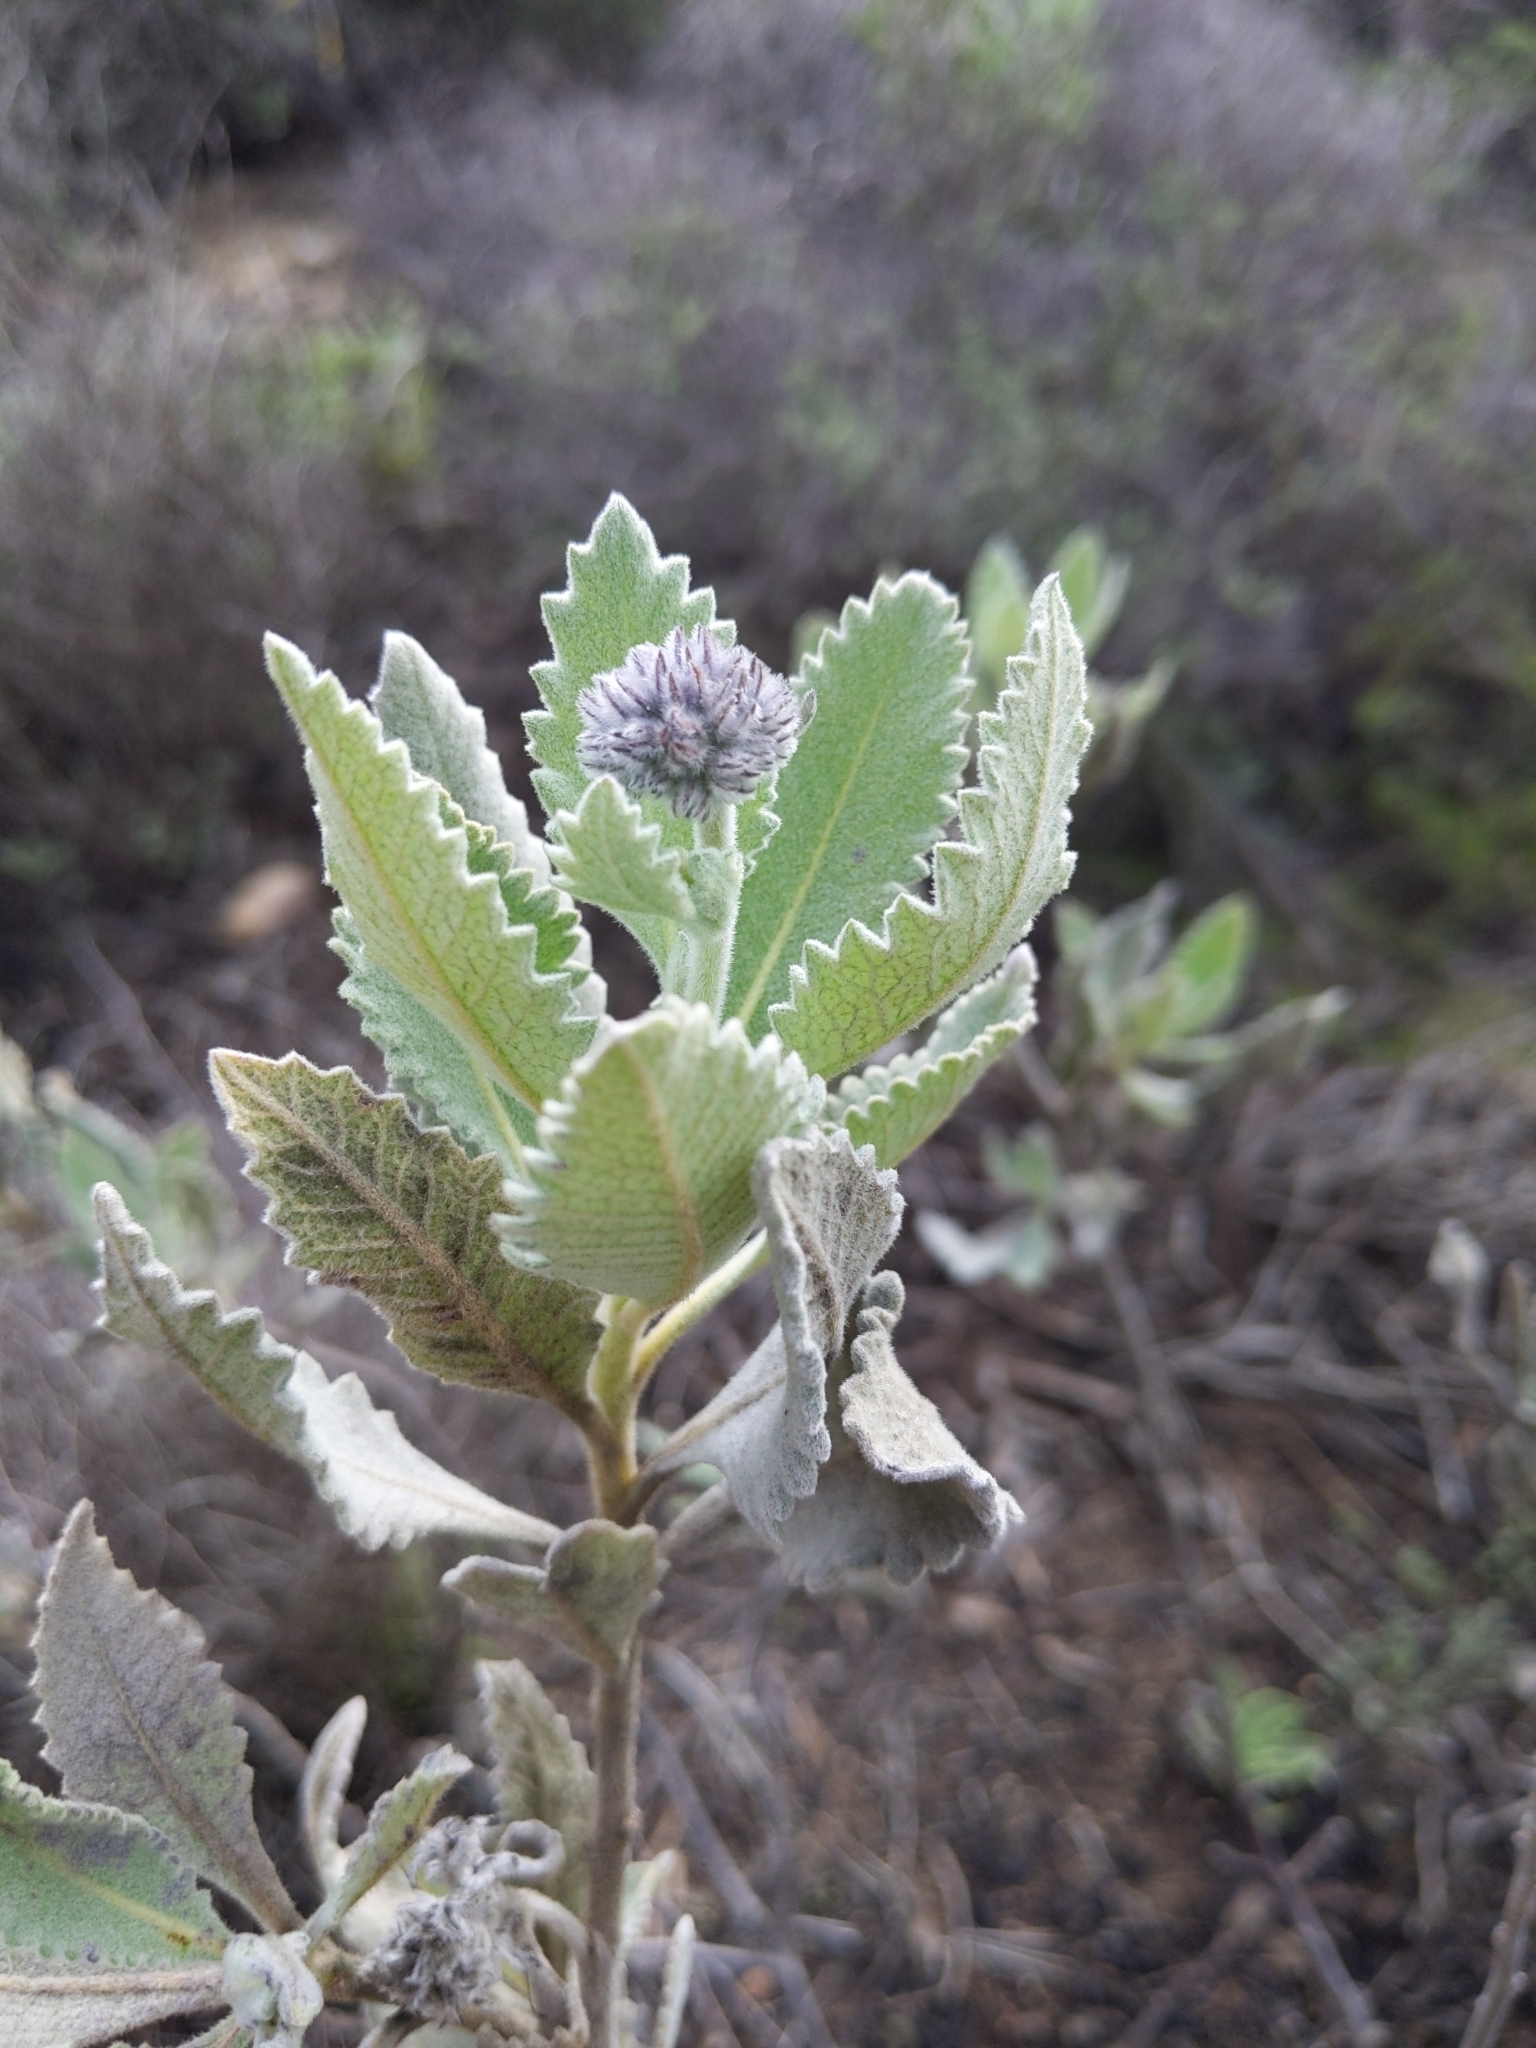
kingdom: Plantae
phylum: Tracheophyta
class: Magnoliopsida
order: Boraginales
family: Namaceae
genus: Eriodictyon
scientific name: Eriodictyon crassifolium
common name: Thick-leaf yerba-santa
